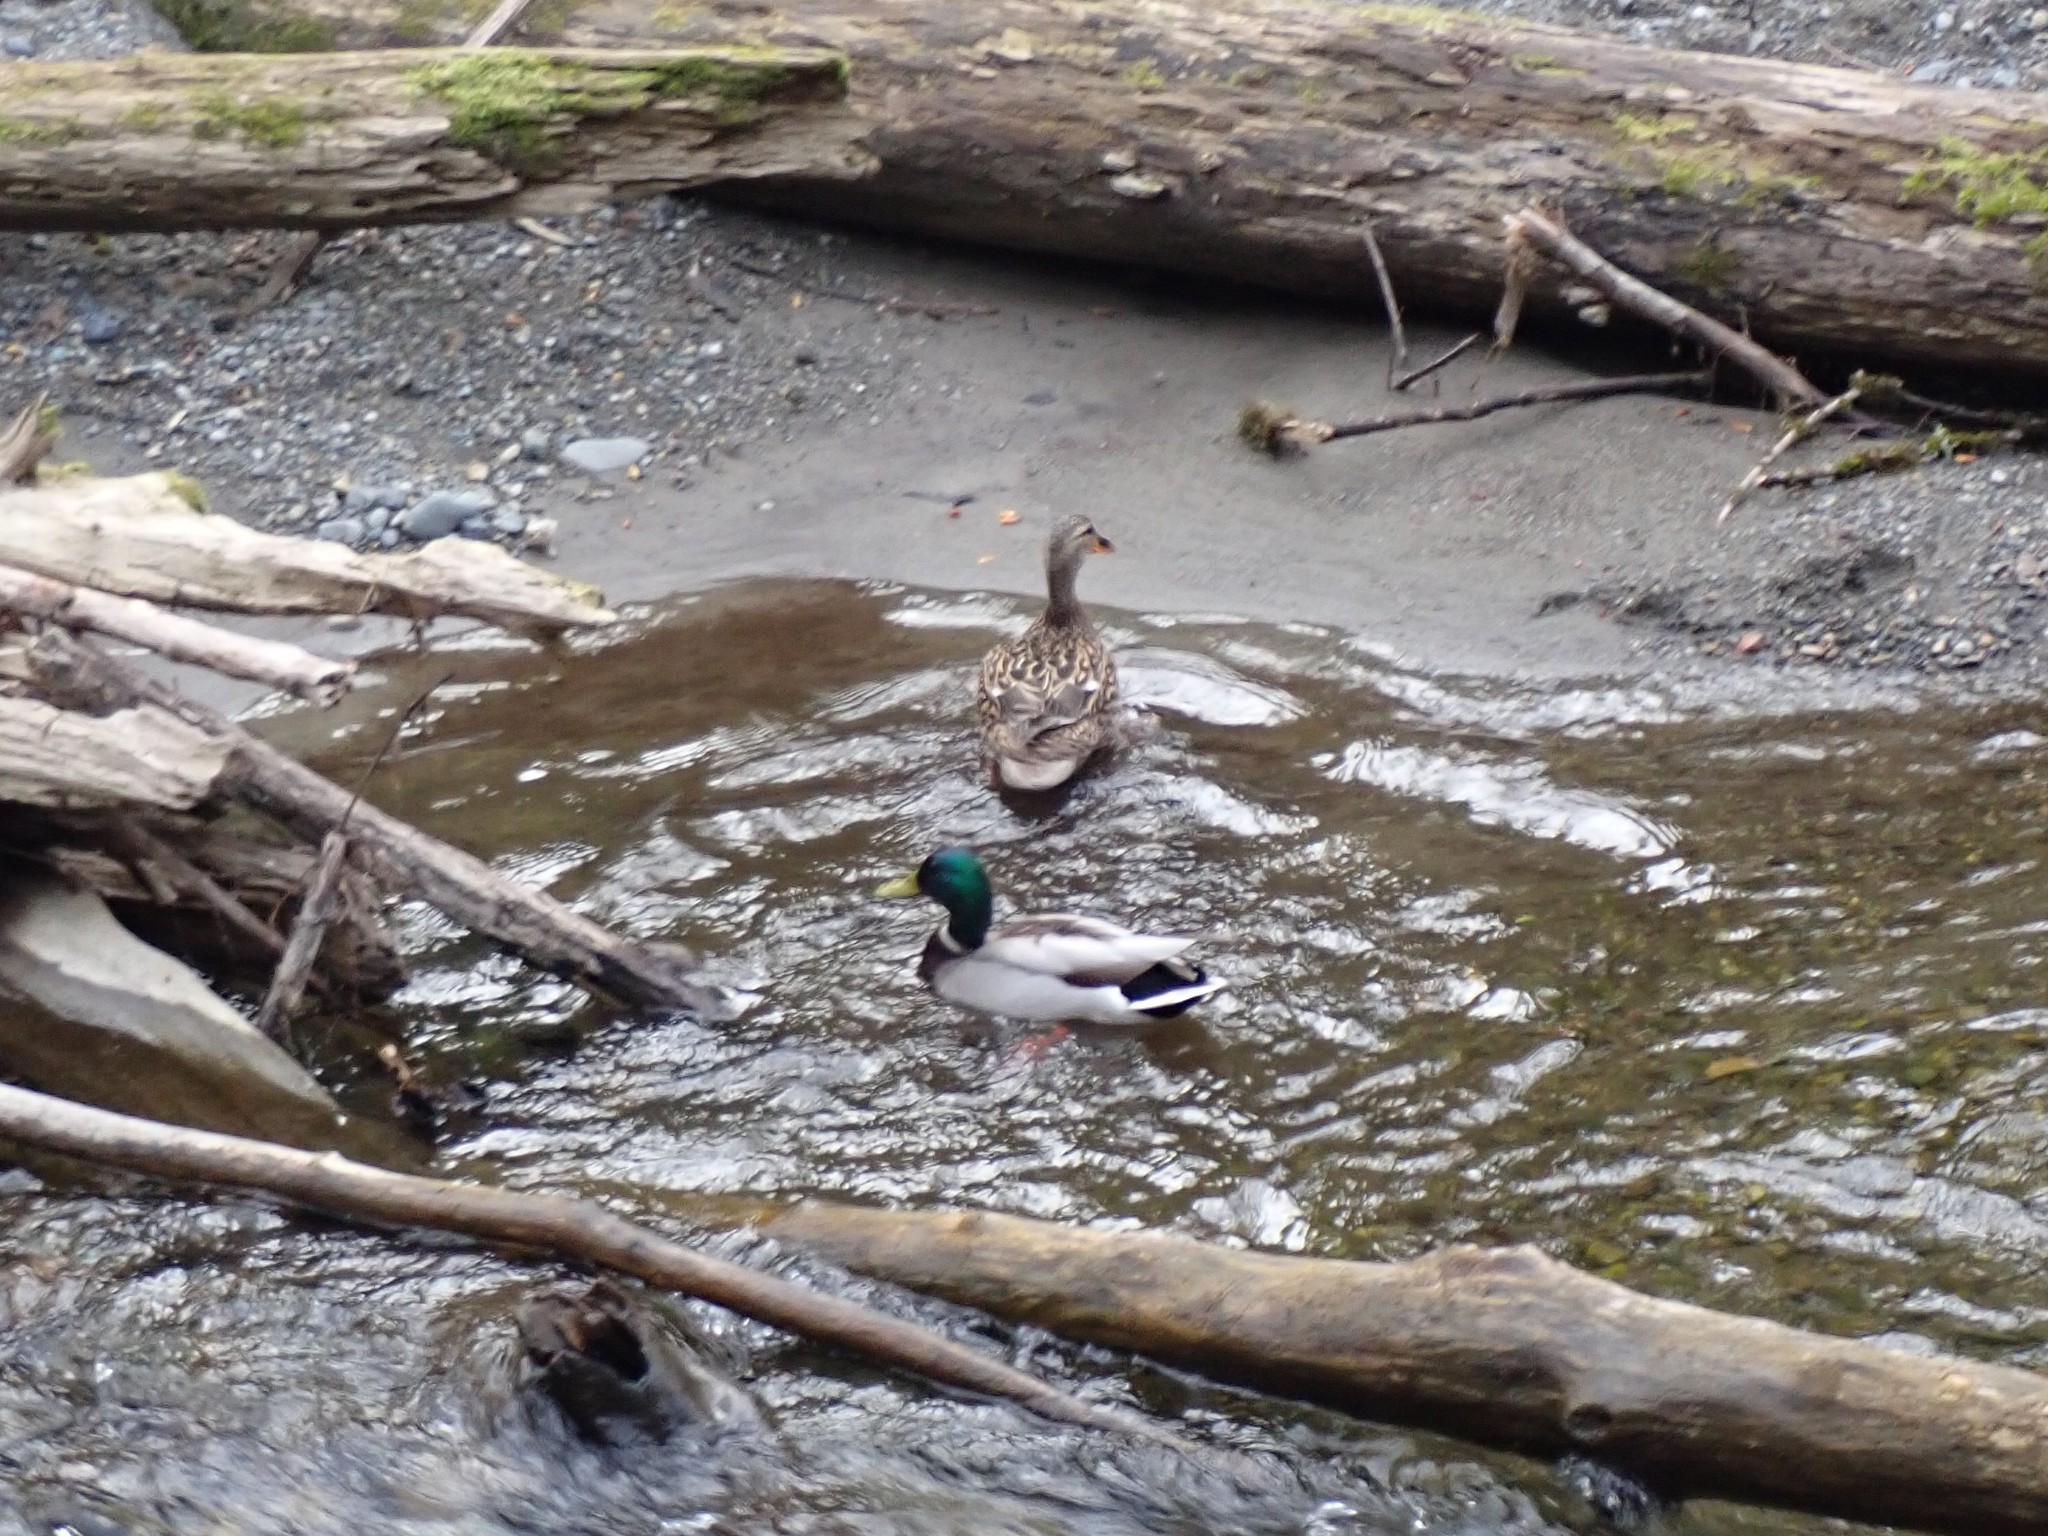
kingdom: Animalia
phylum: Chordata
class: Aves
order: Anseriformes
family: Anatidae
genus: Anas
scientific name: Anas platyrhynchos
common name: Mallard
